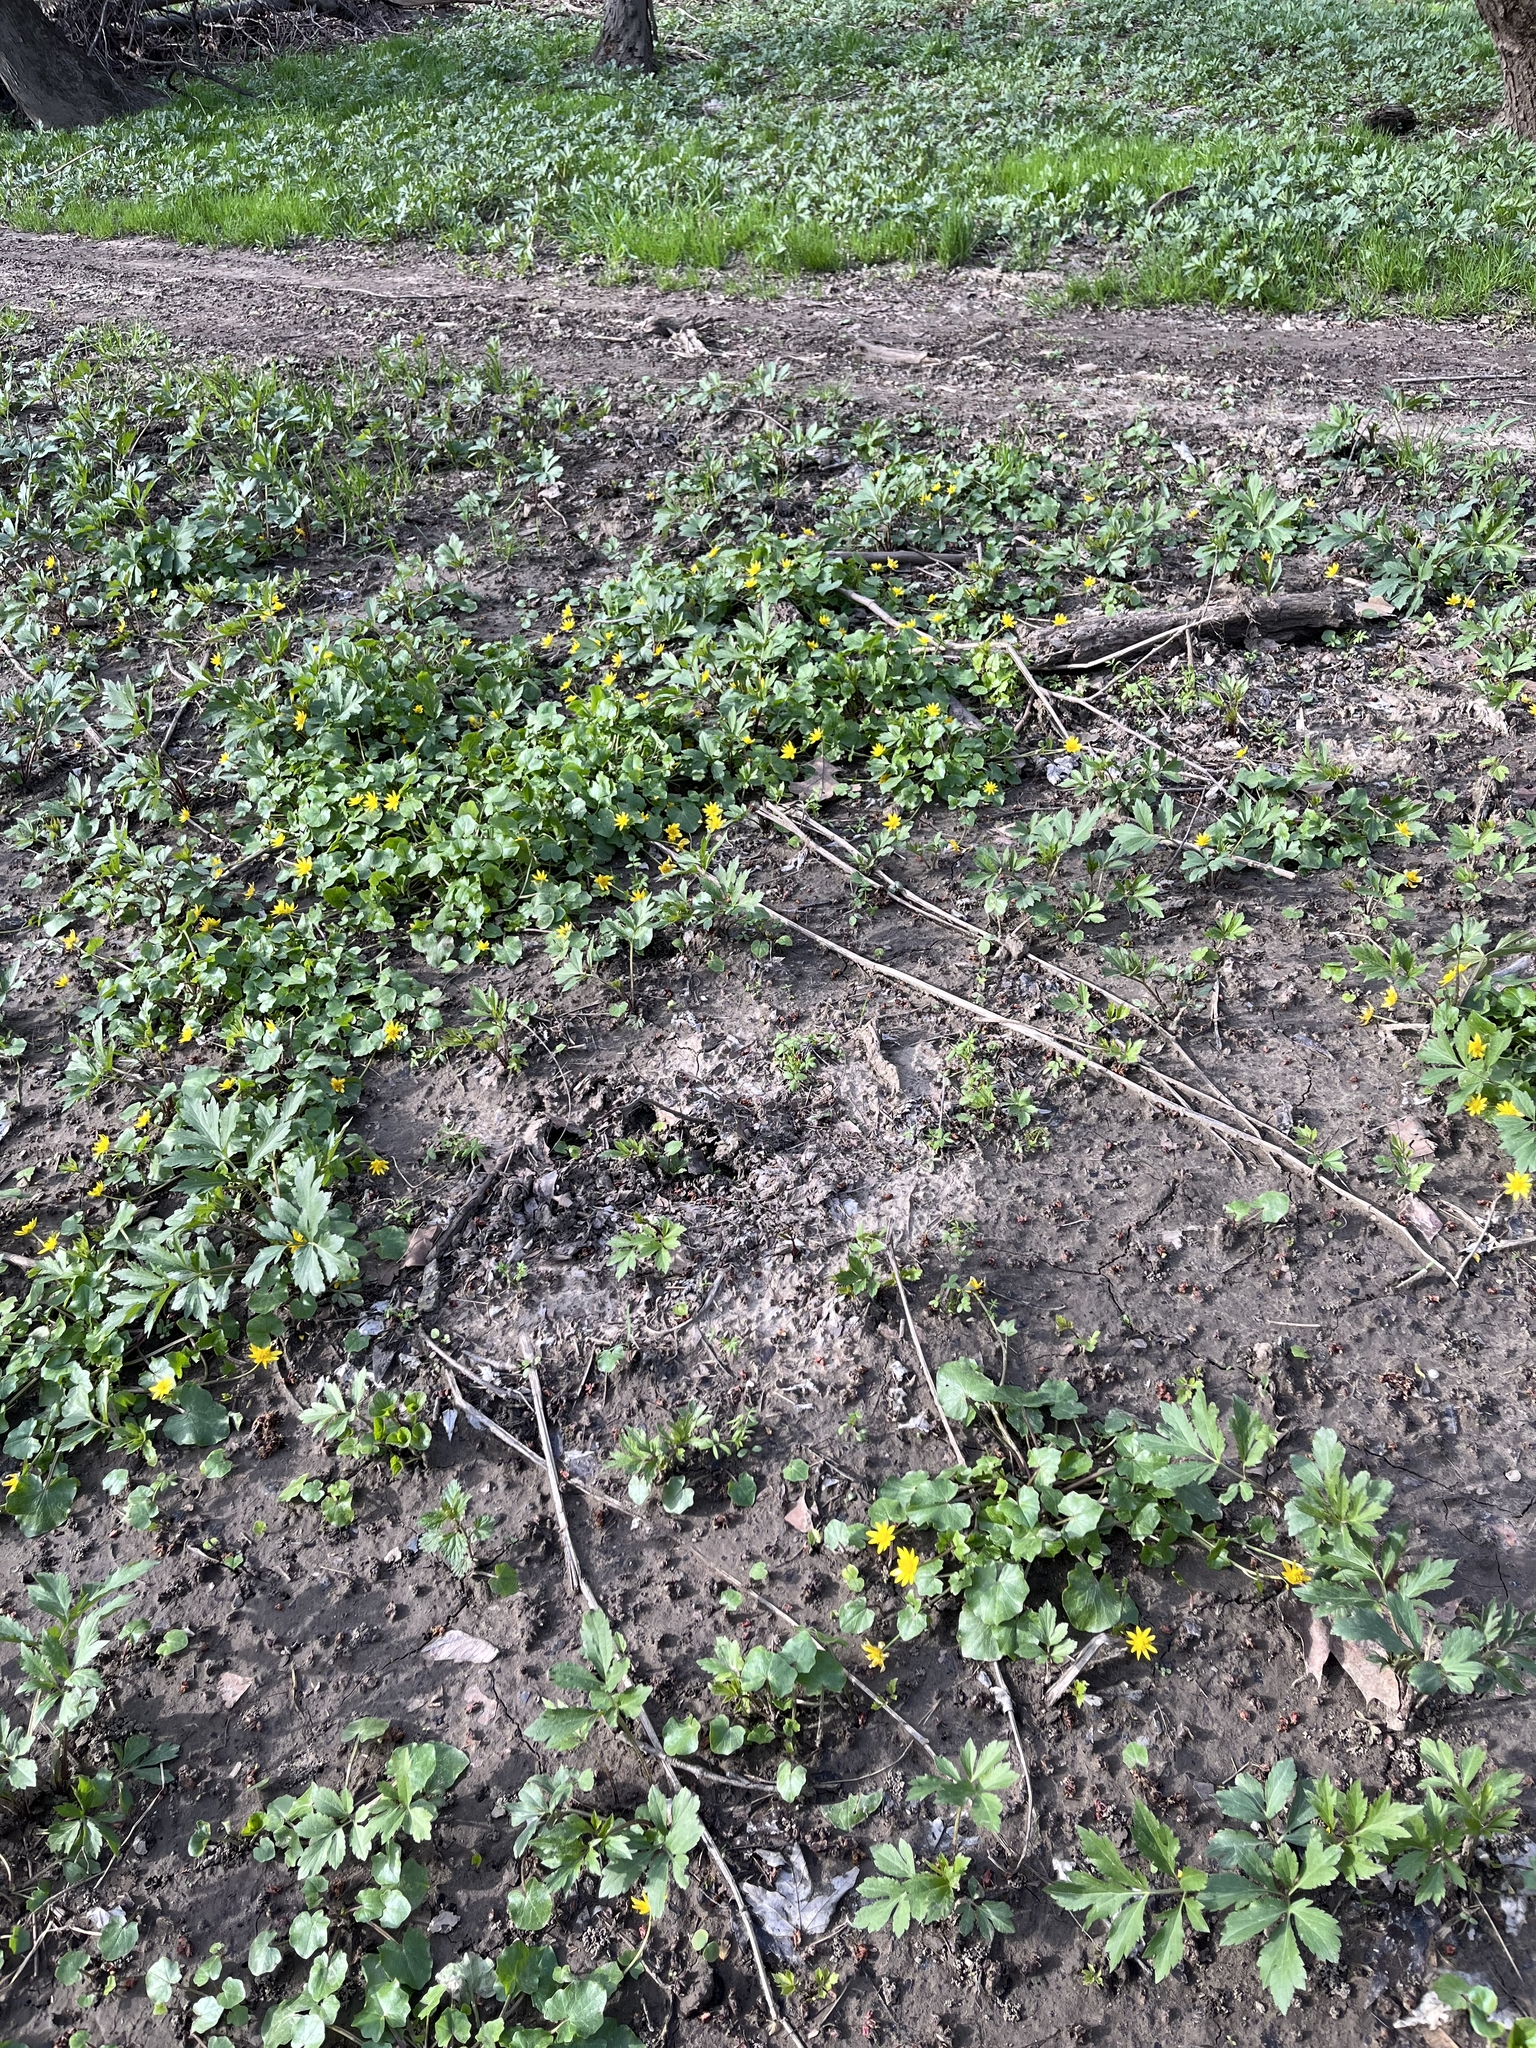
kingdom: Plantae
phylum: Tracheophyta
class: Magnoliopsida
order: Ranunculales
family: Ranunculaceae
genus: Ficaria
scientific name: Ficaria verna
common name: Lesser celandine
